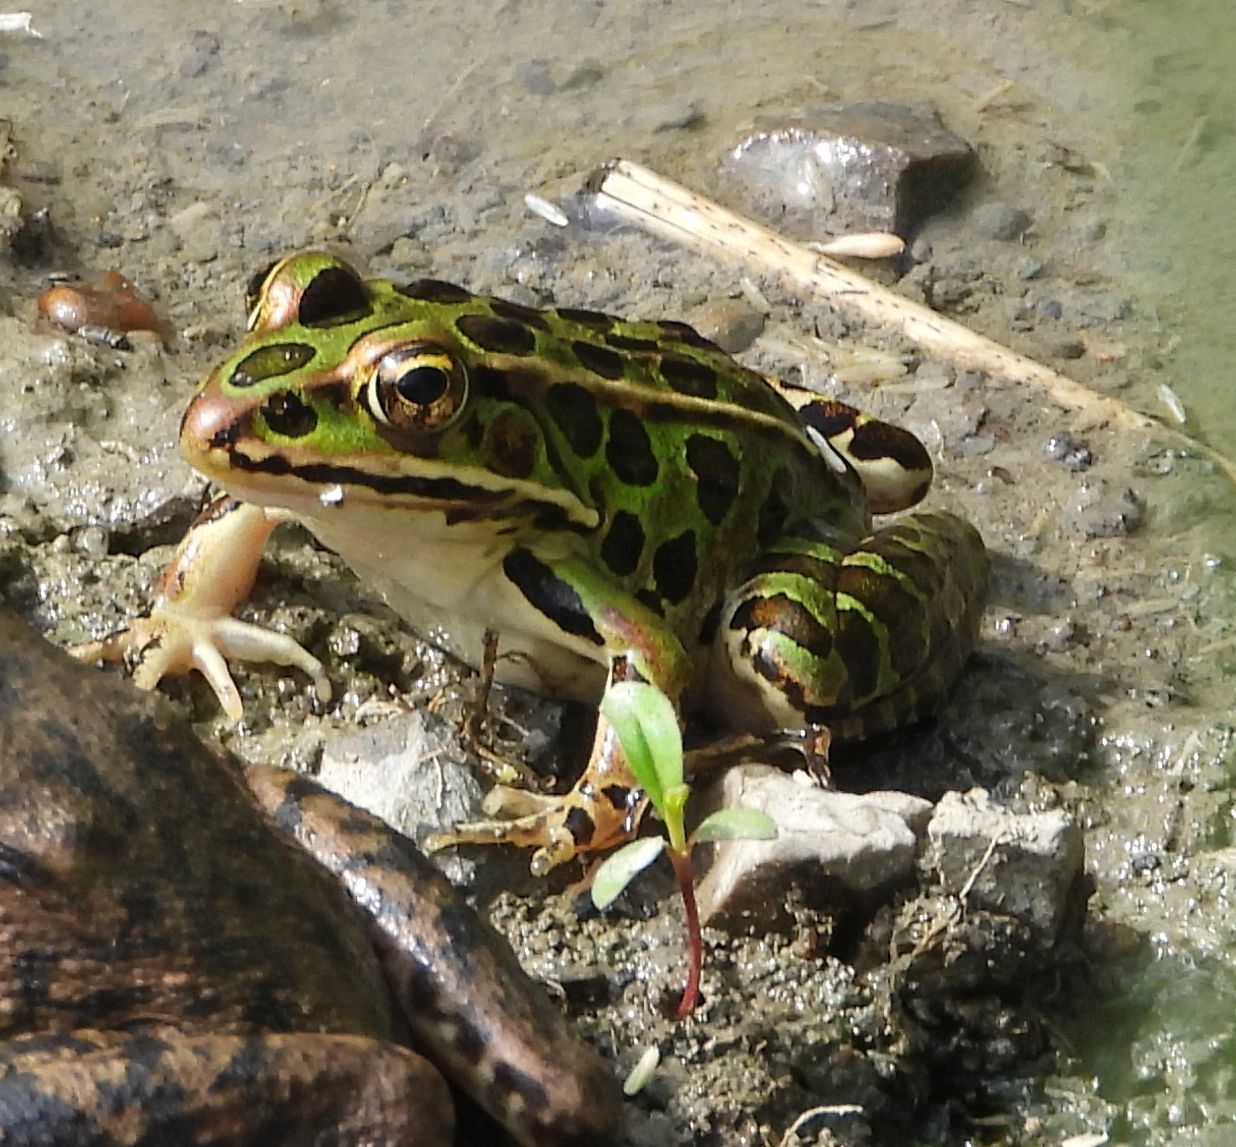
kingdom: Animalia
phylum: Chordata
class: Amphibia
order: Anura
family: Ranidae
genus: Lithobates
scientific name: Lithobates pipiens
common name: Northern leopard frog
